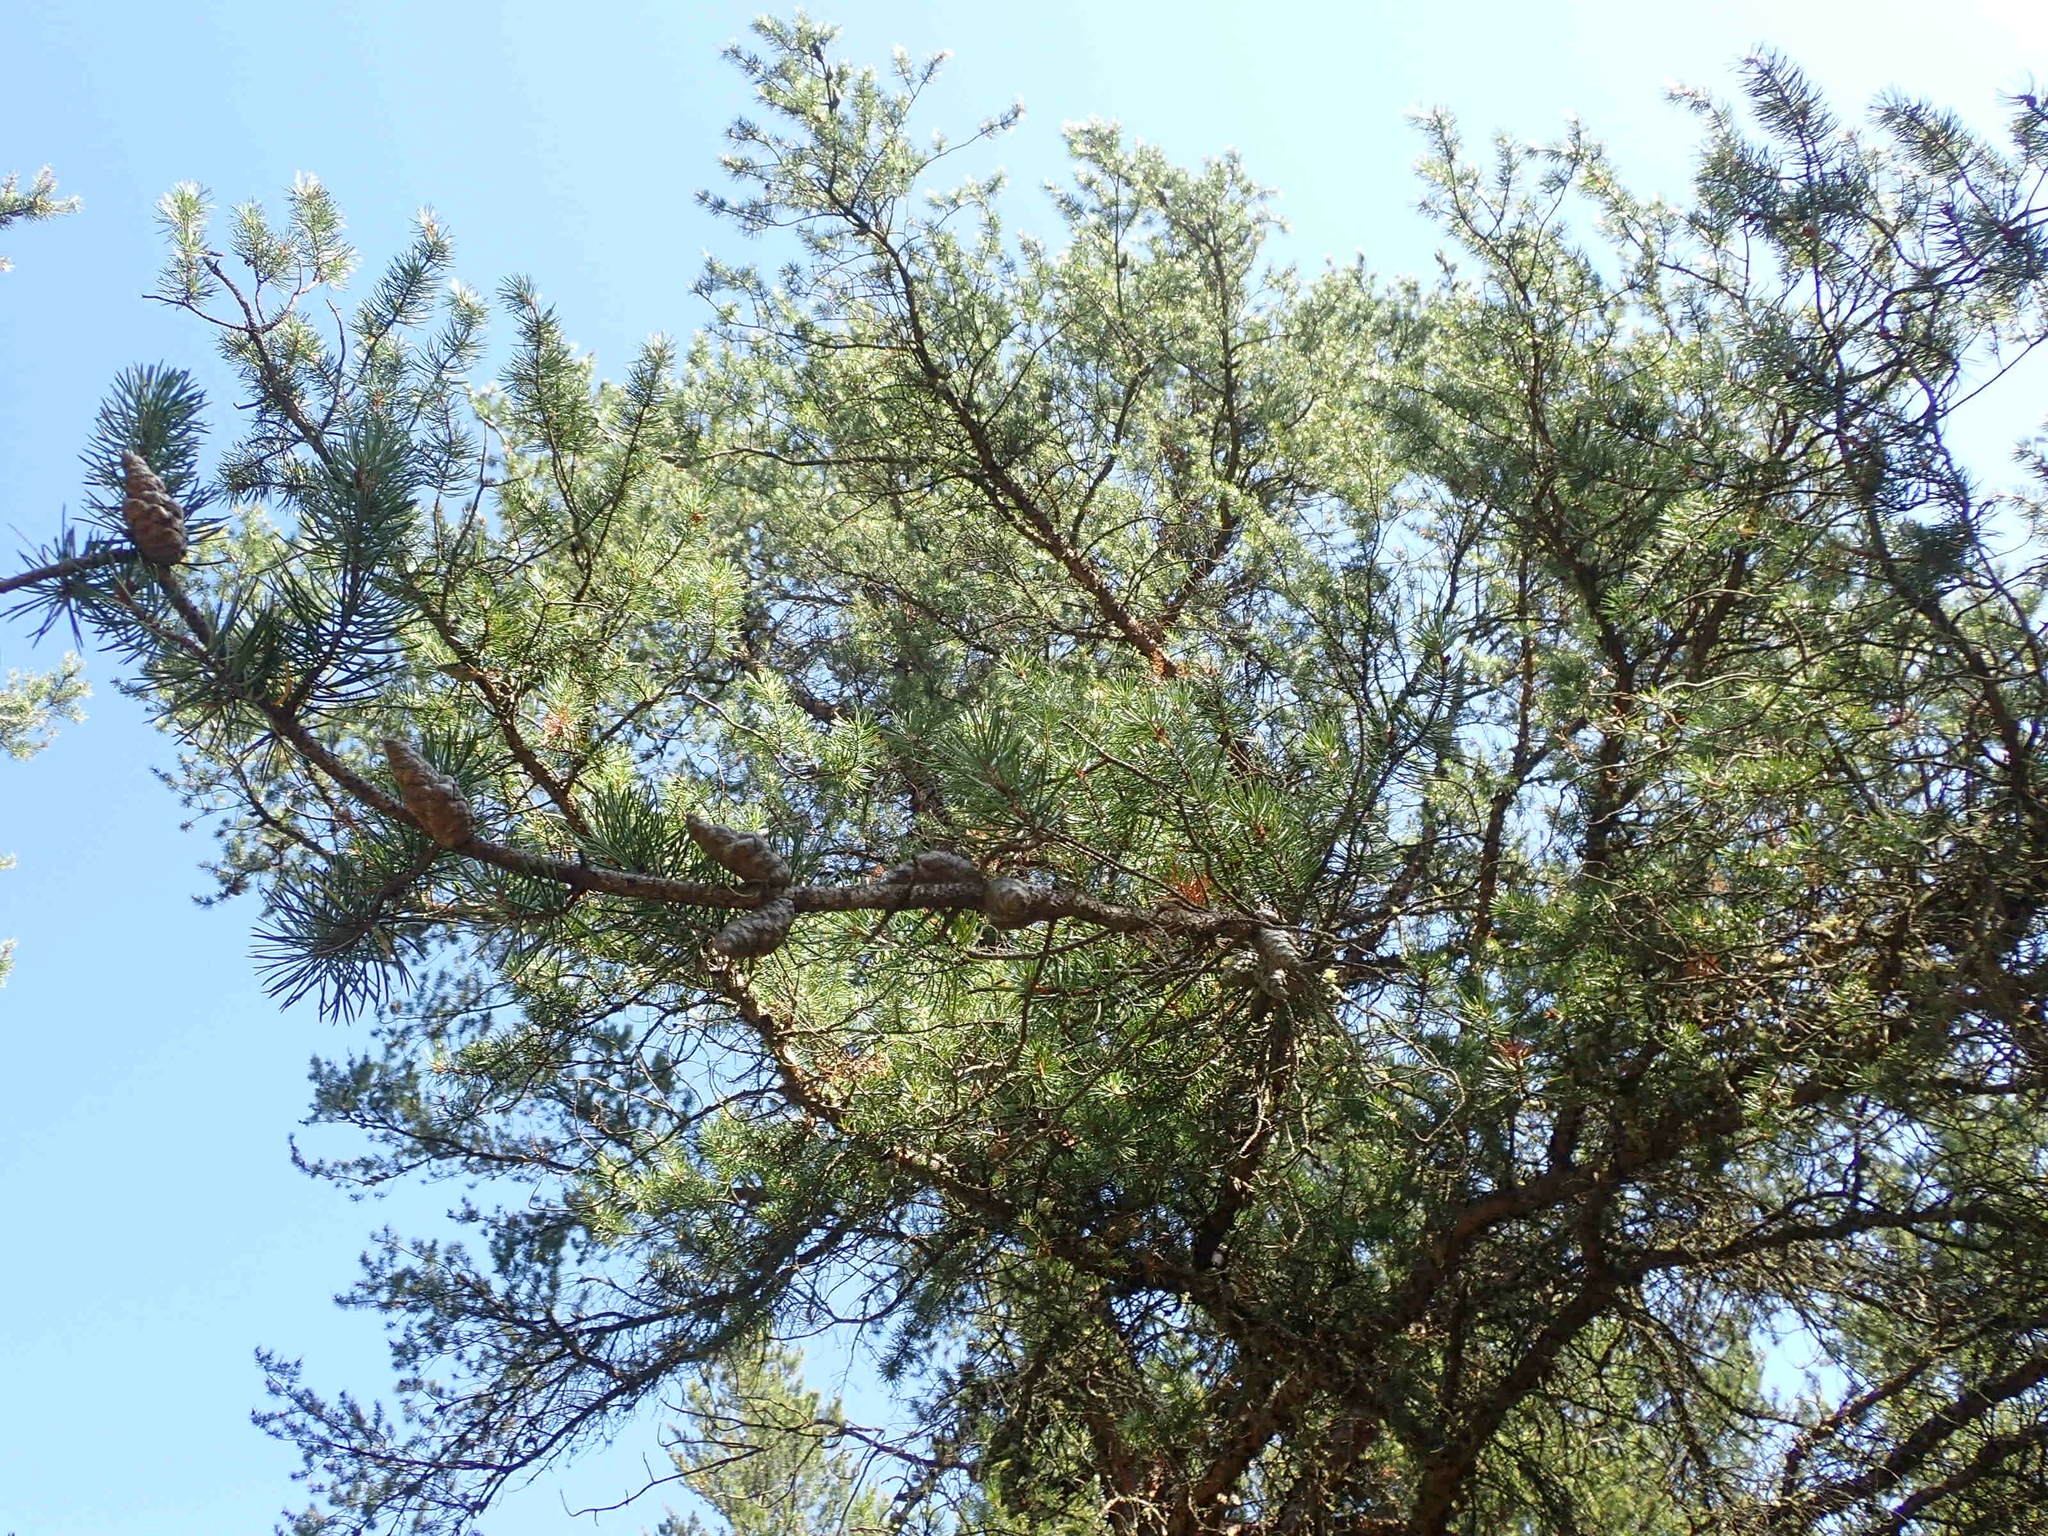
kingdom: Plantae
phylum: Tracheophyta
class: Pinopsida
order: Pinales
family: Pinaceae
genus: Pinus
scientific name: Pinus banksiana
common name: Jack pine
